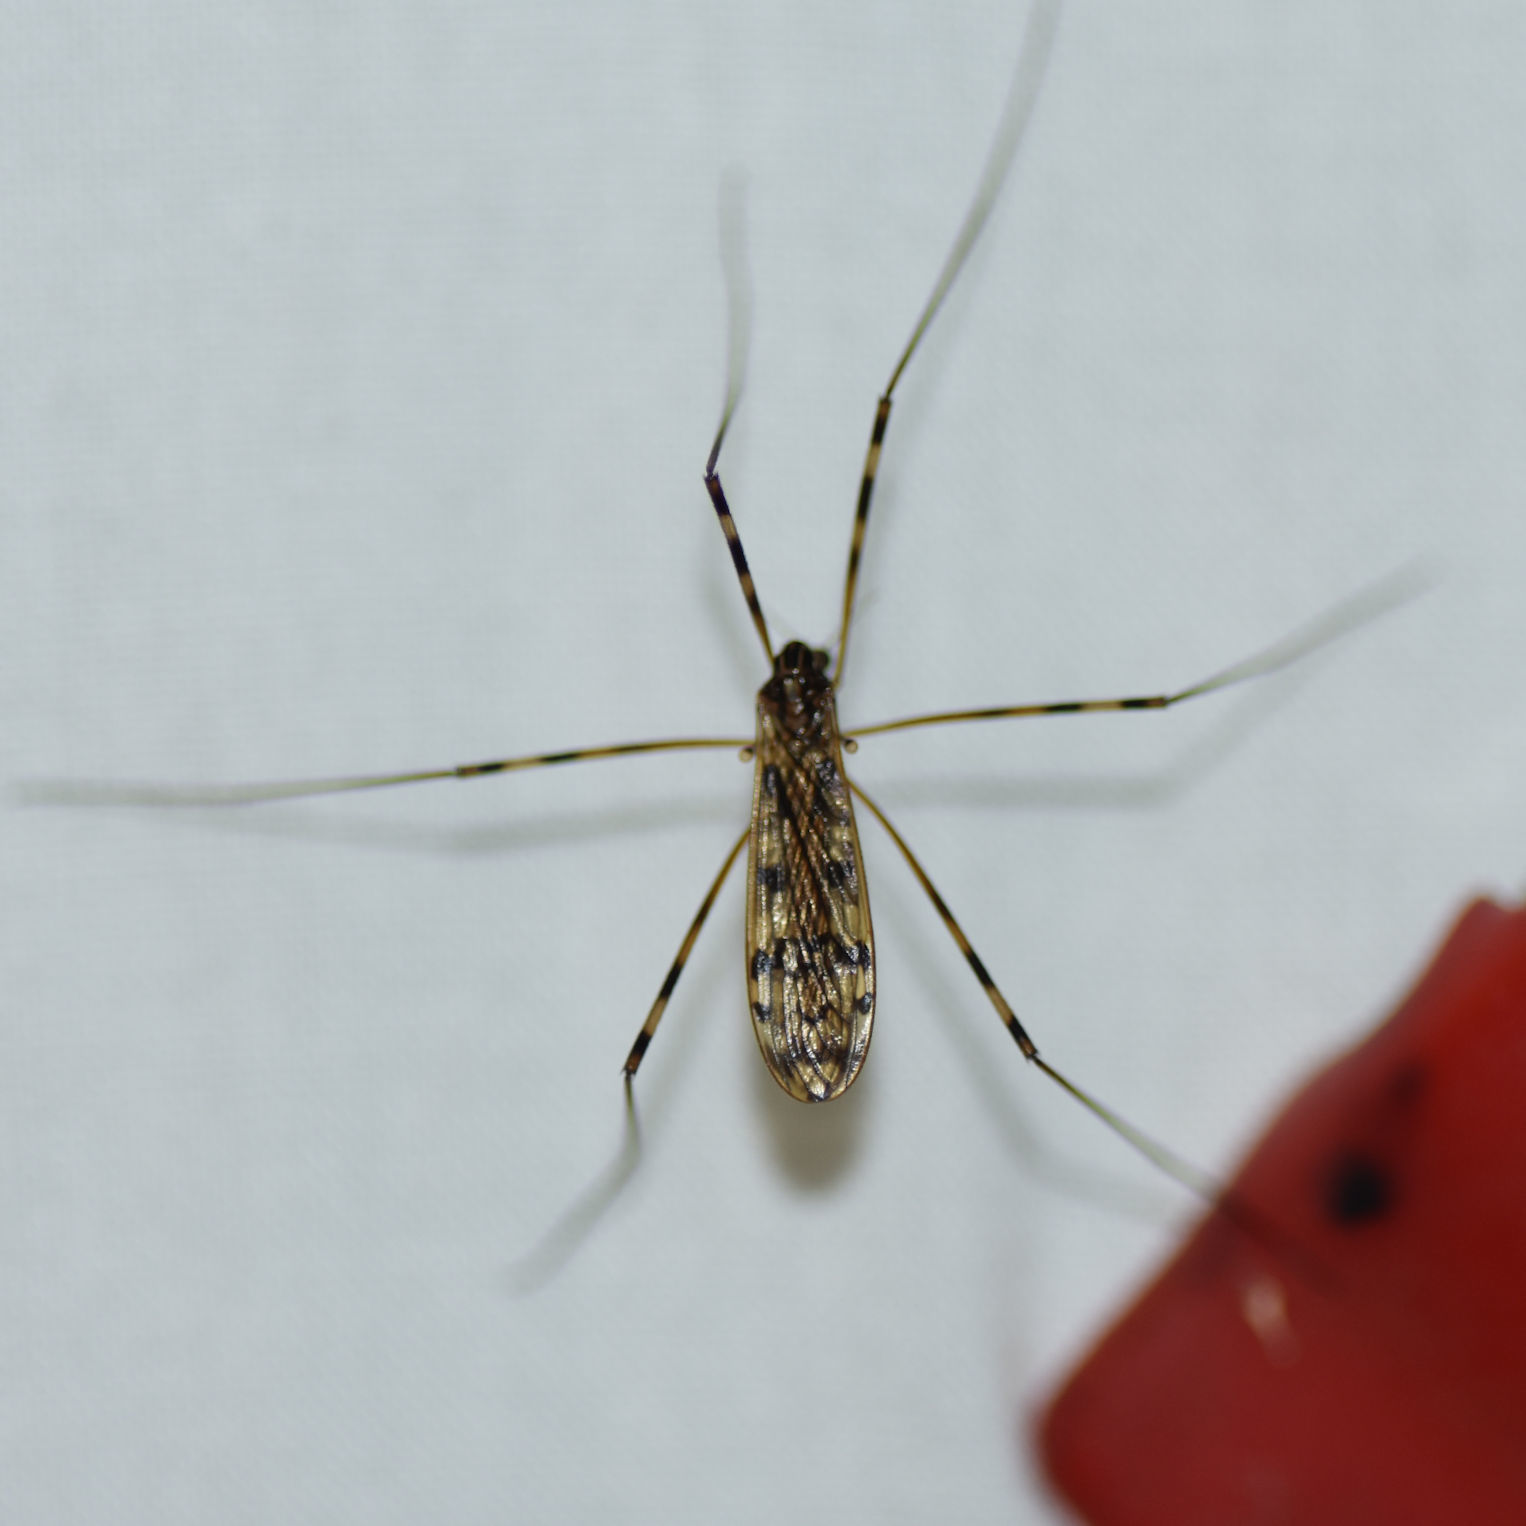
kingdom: Animalia
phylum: Arthropoda
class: Insecta
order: Diptera
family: Limoniidae
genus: Metalimnobia
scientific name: Metalimnobia immatura
